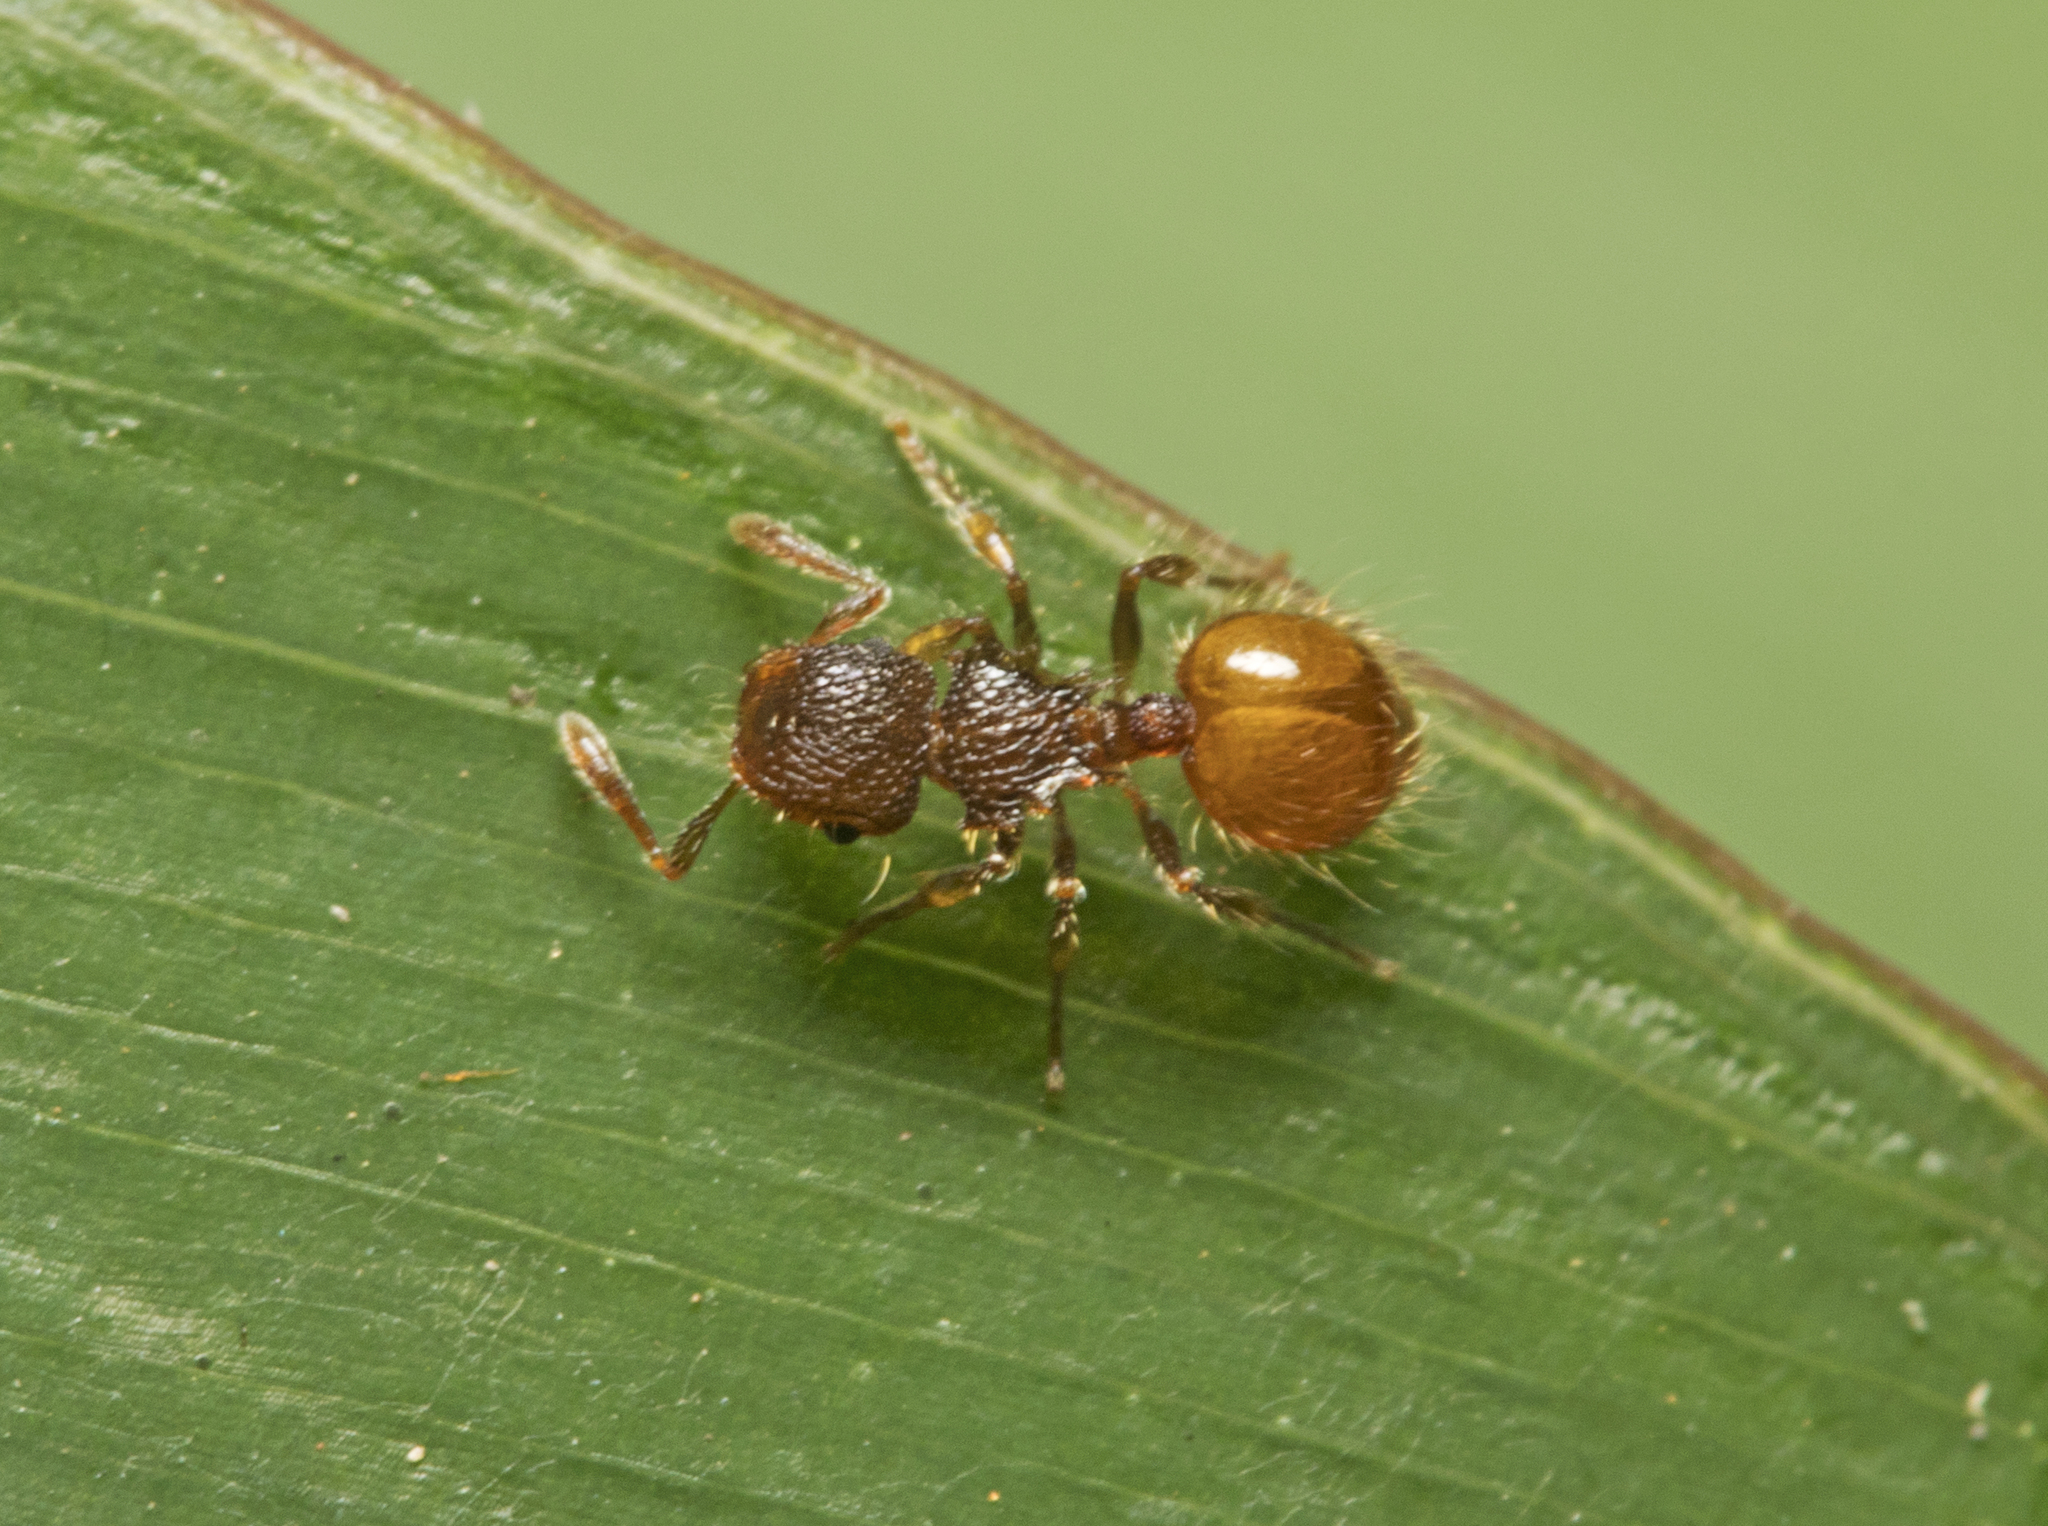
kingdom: Animalia
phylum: Arthropoda
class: Insecta
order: Hymenoptera
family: Formicidae
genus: Meranoplus
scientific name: Meranoplus minor
